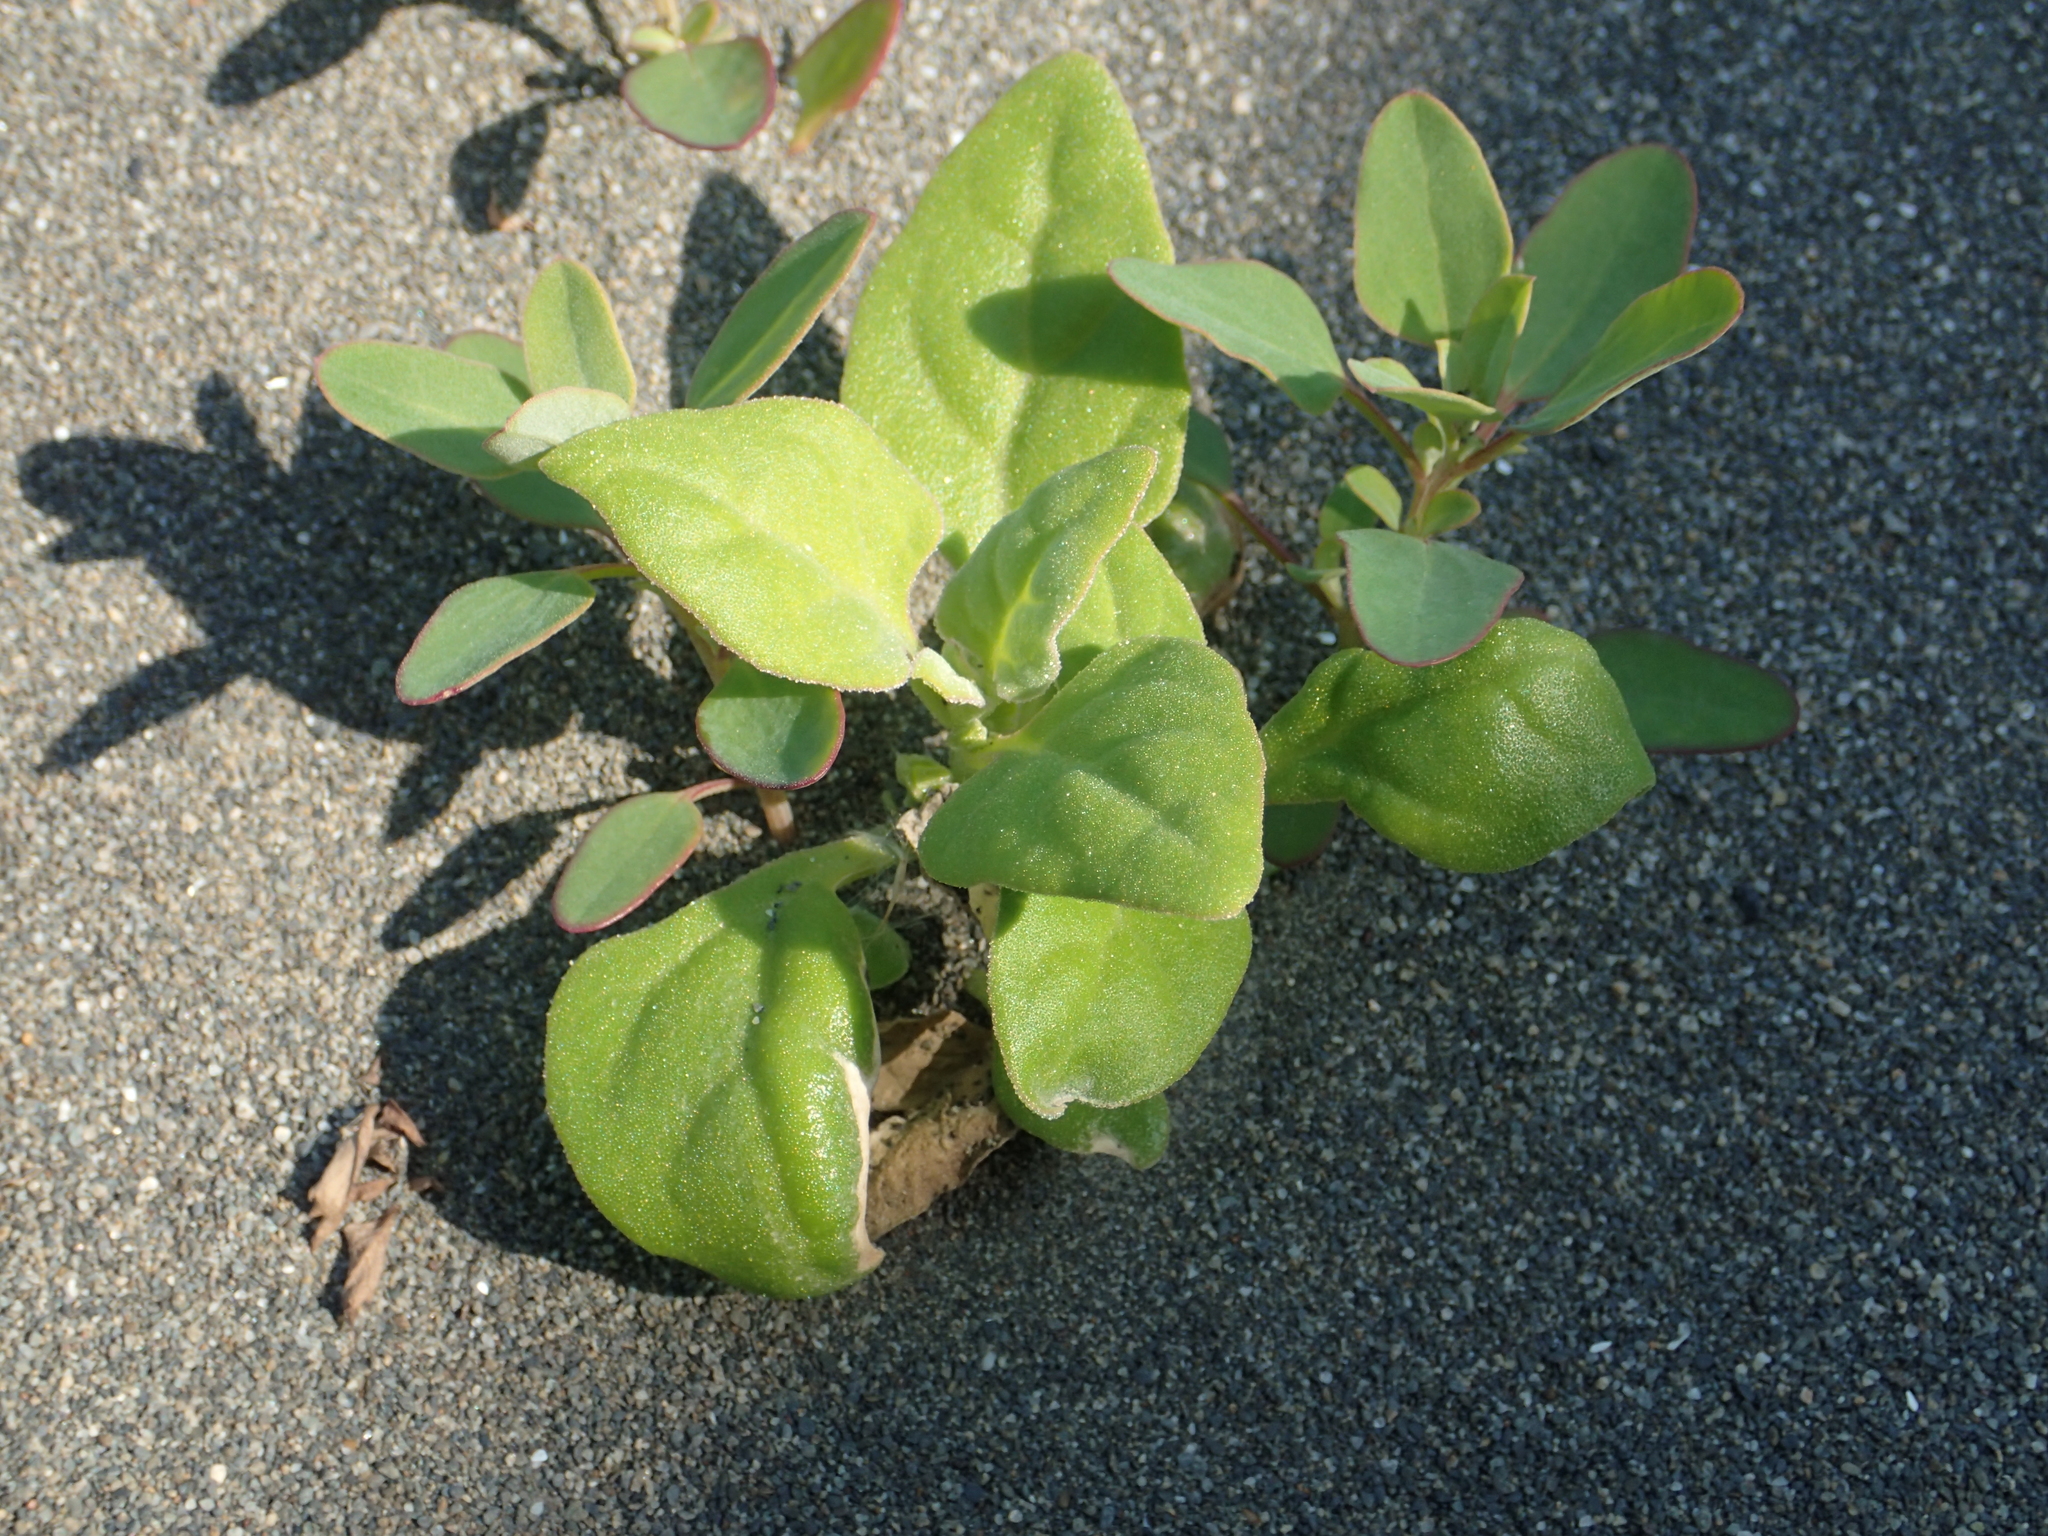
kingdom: Plantae
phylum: Tracheophyta
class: Magnoliopsida
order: Caryophyllales
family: Aizoaceae
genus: Tetragonia
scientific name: Tetragonia tetragonoides
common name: New zealand-spinach
